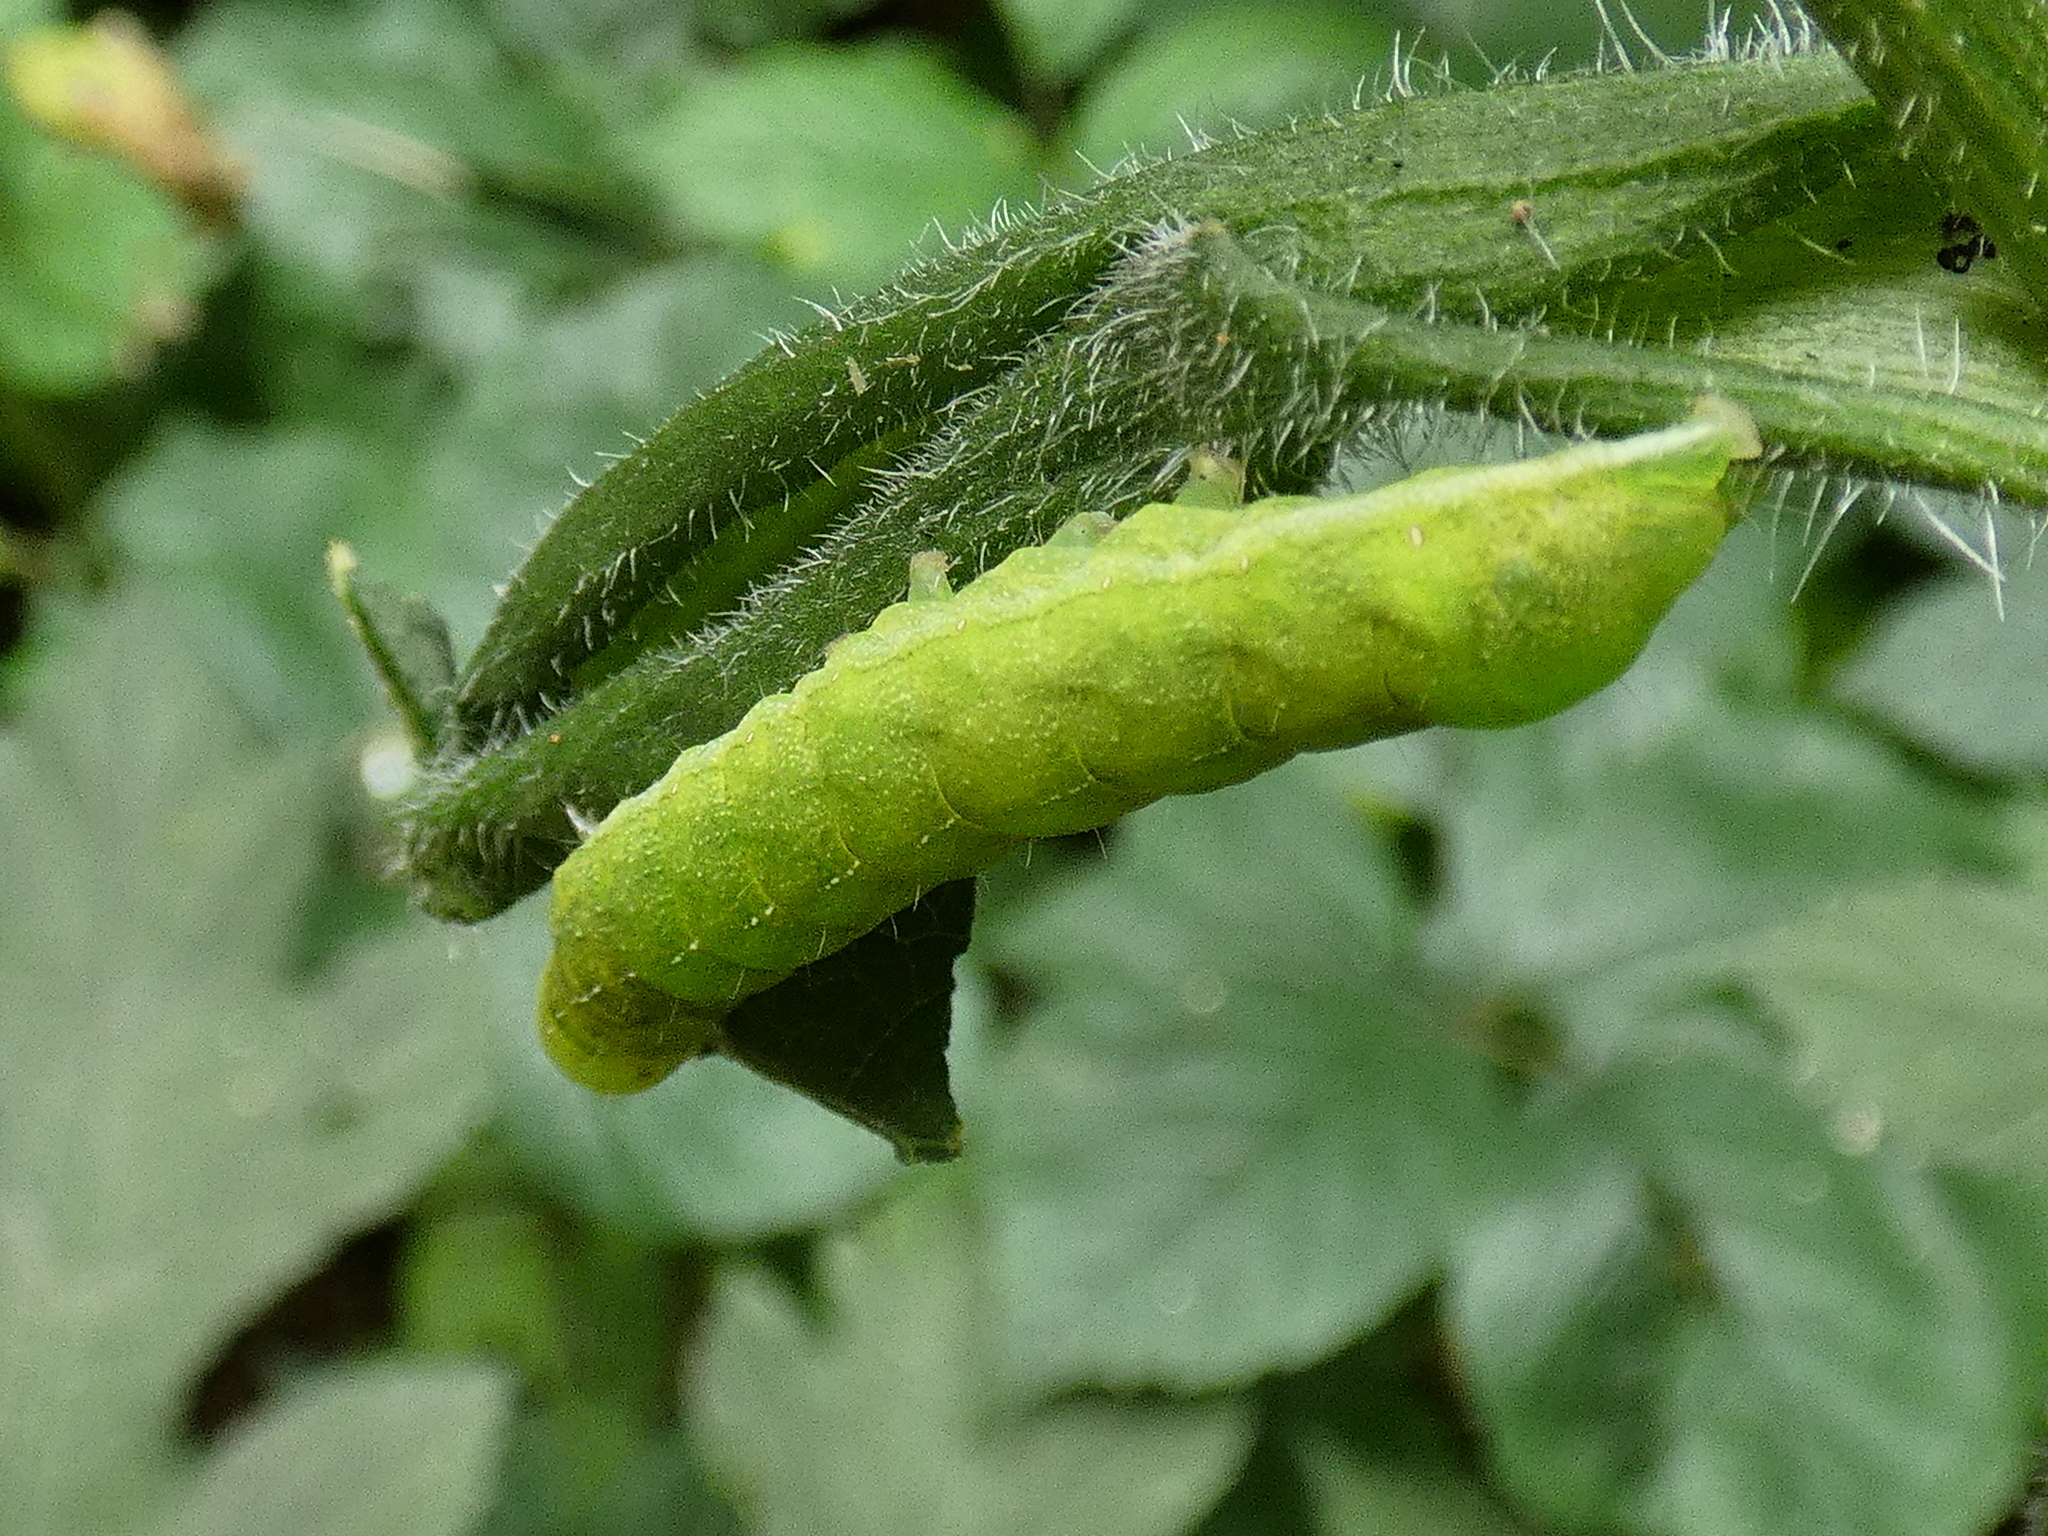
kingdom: Animalia
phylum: Arthropoda
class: Insecta
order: Lepidoptera
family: Noctuidae
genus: Phlogophora
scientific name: Phlogophora meticulosa
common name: Angle shades
